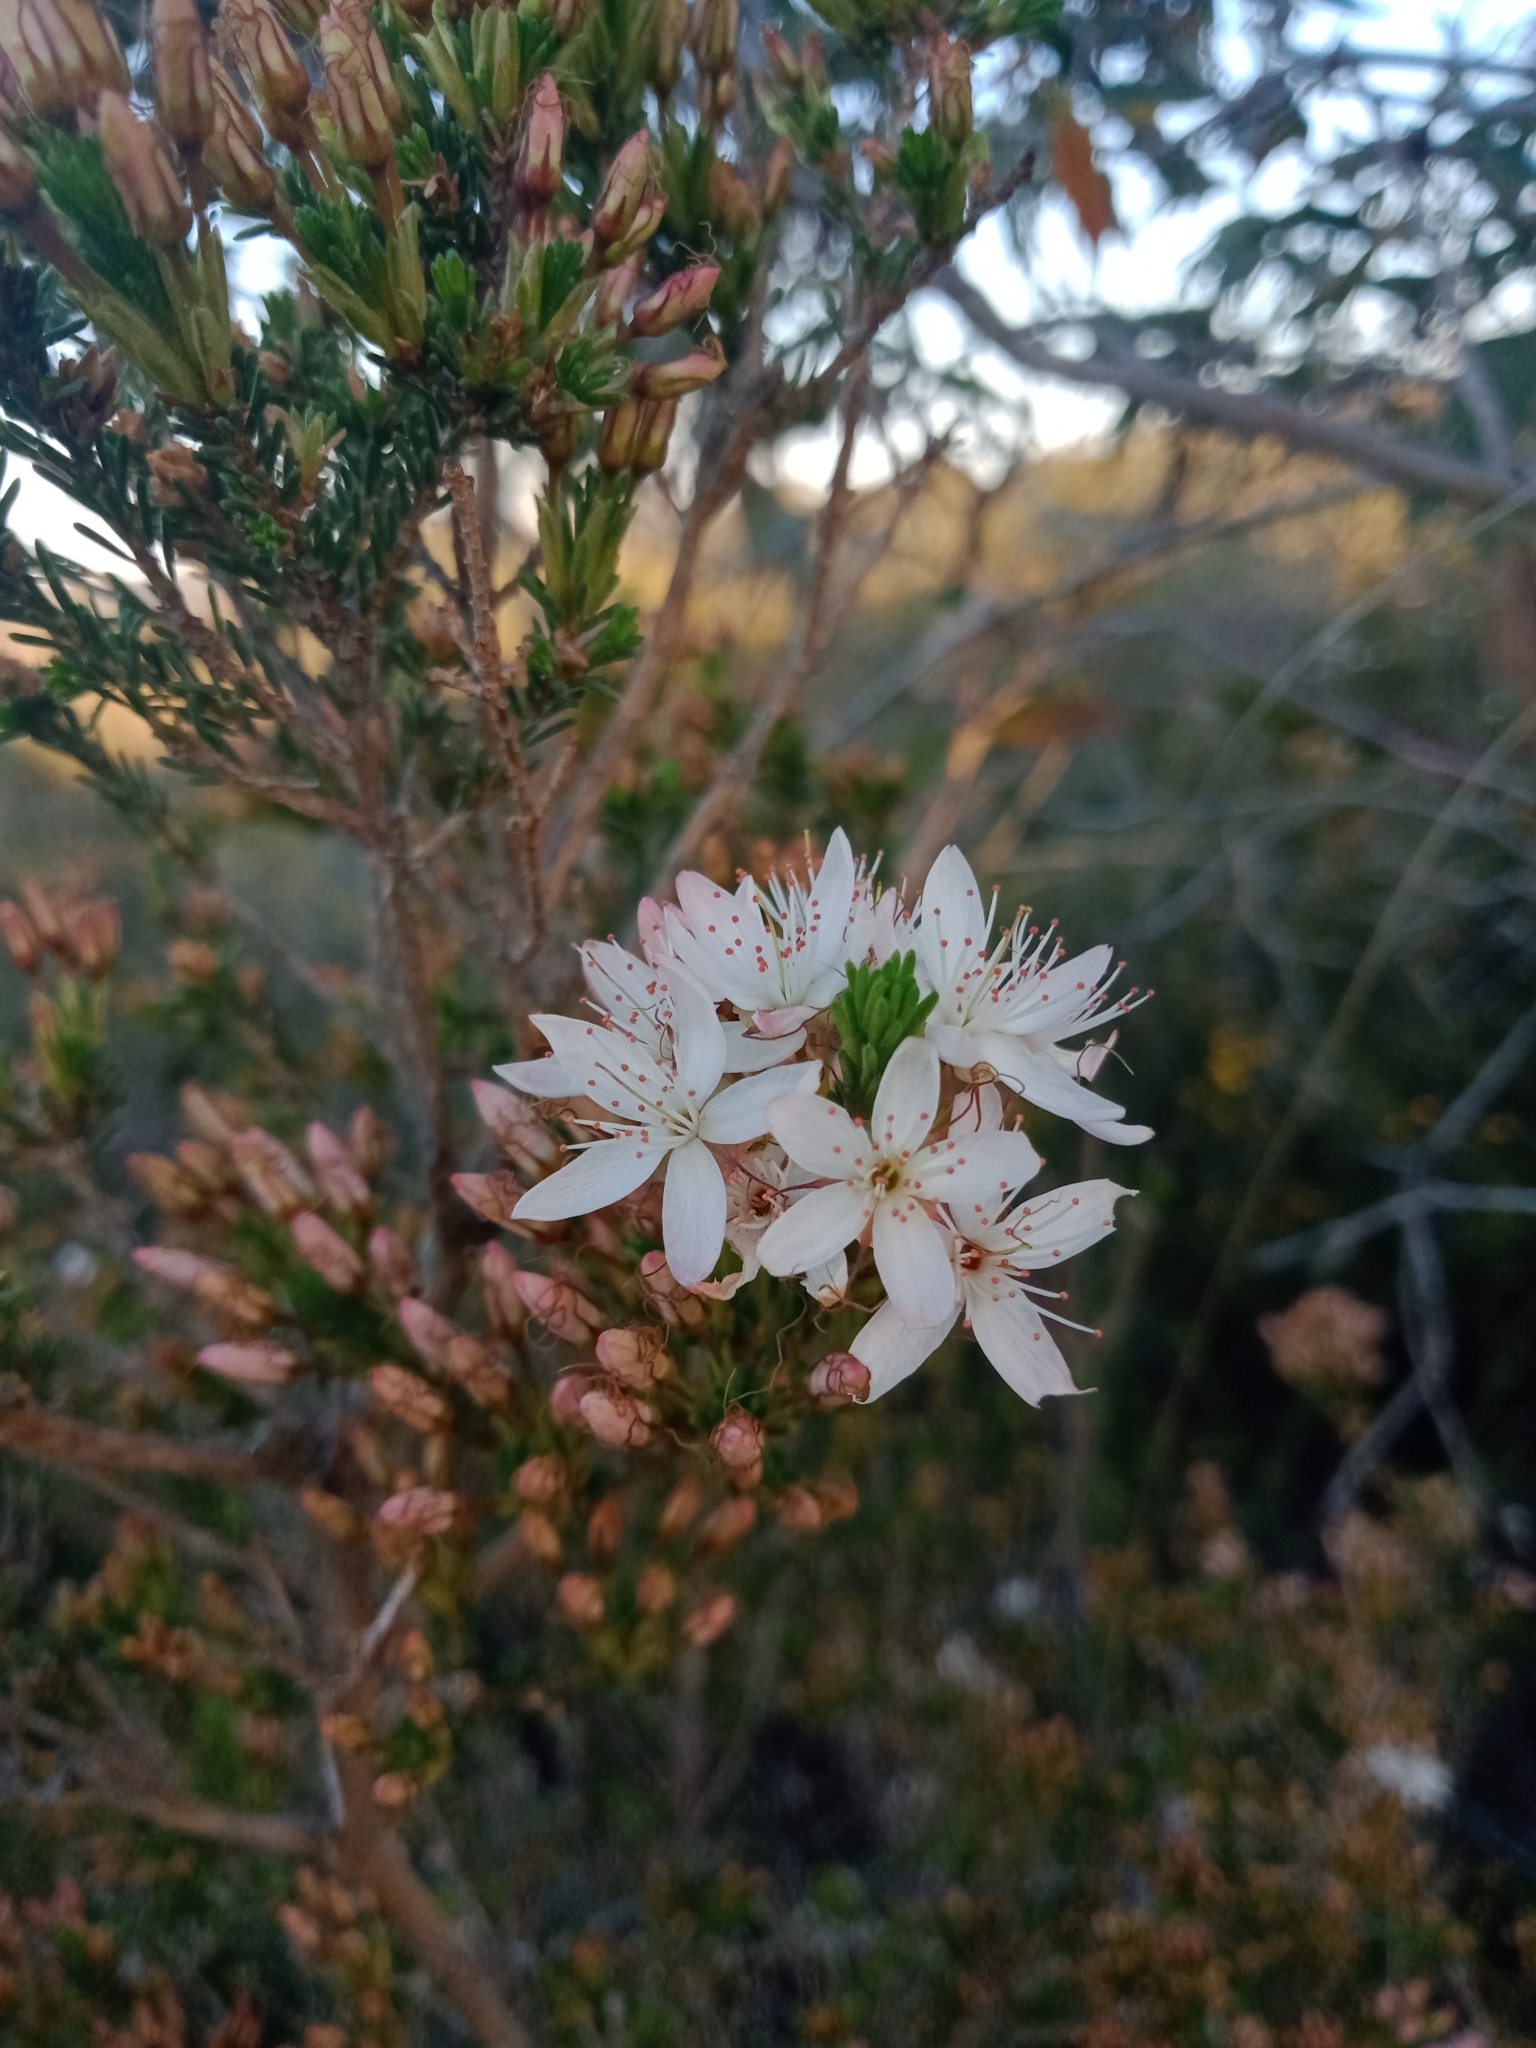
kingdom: Plantae
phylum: Tracheophyta
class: Magnoliopsida
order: Myrtales
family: Myrtaceae
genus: Calytrix
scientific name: Calytrix tetragona
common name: Common fringe myrtle
